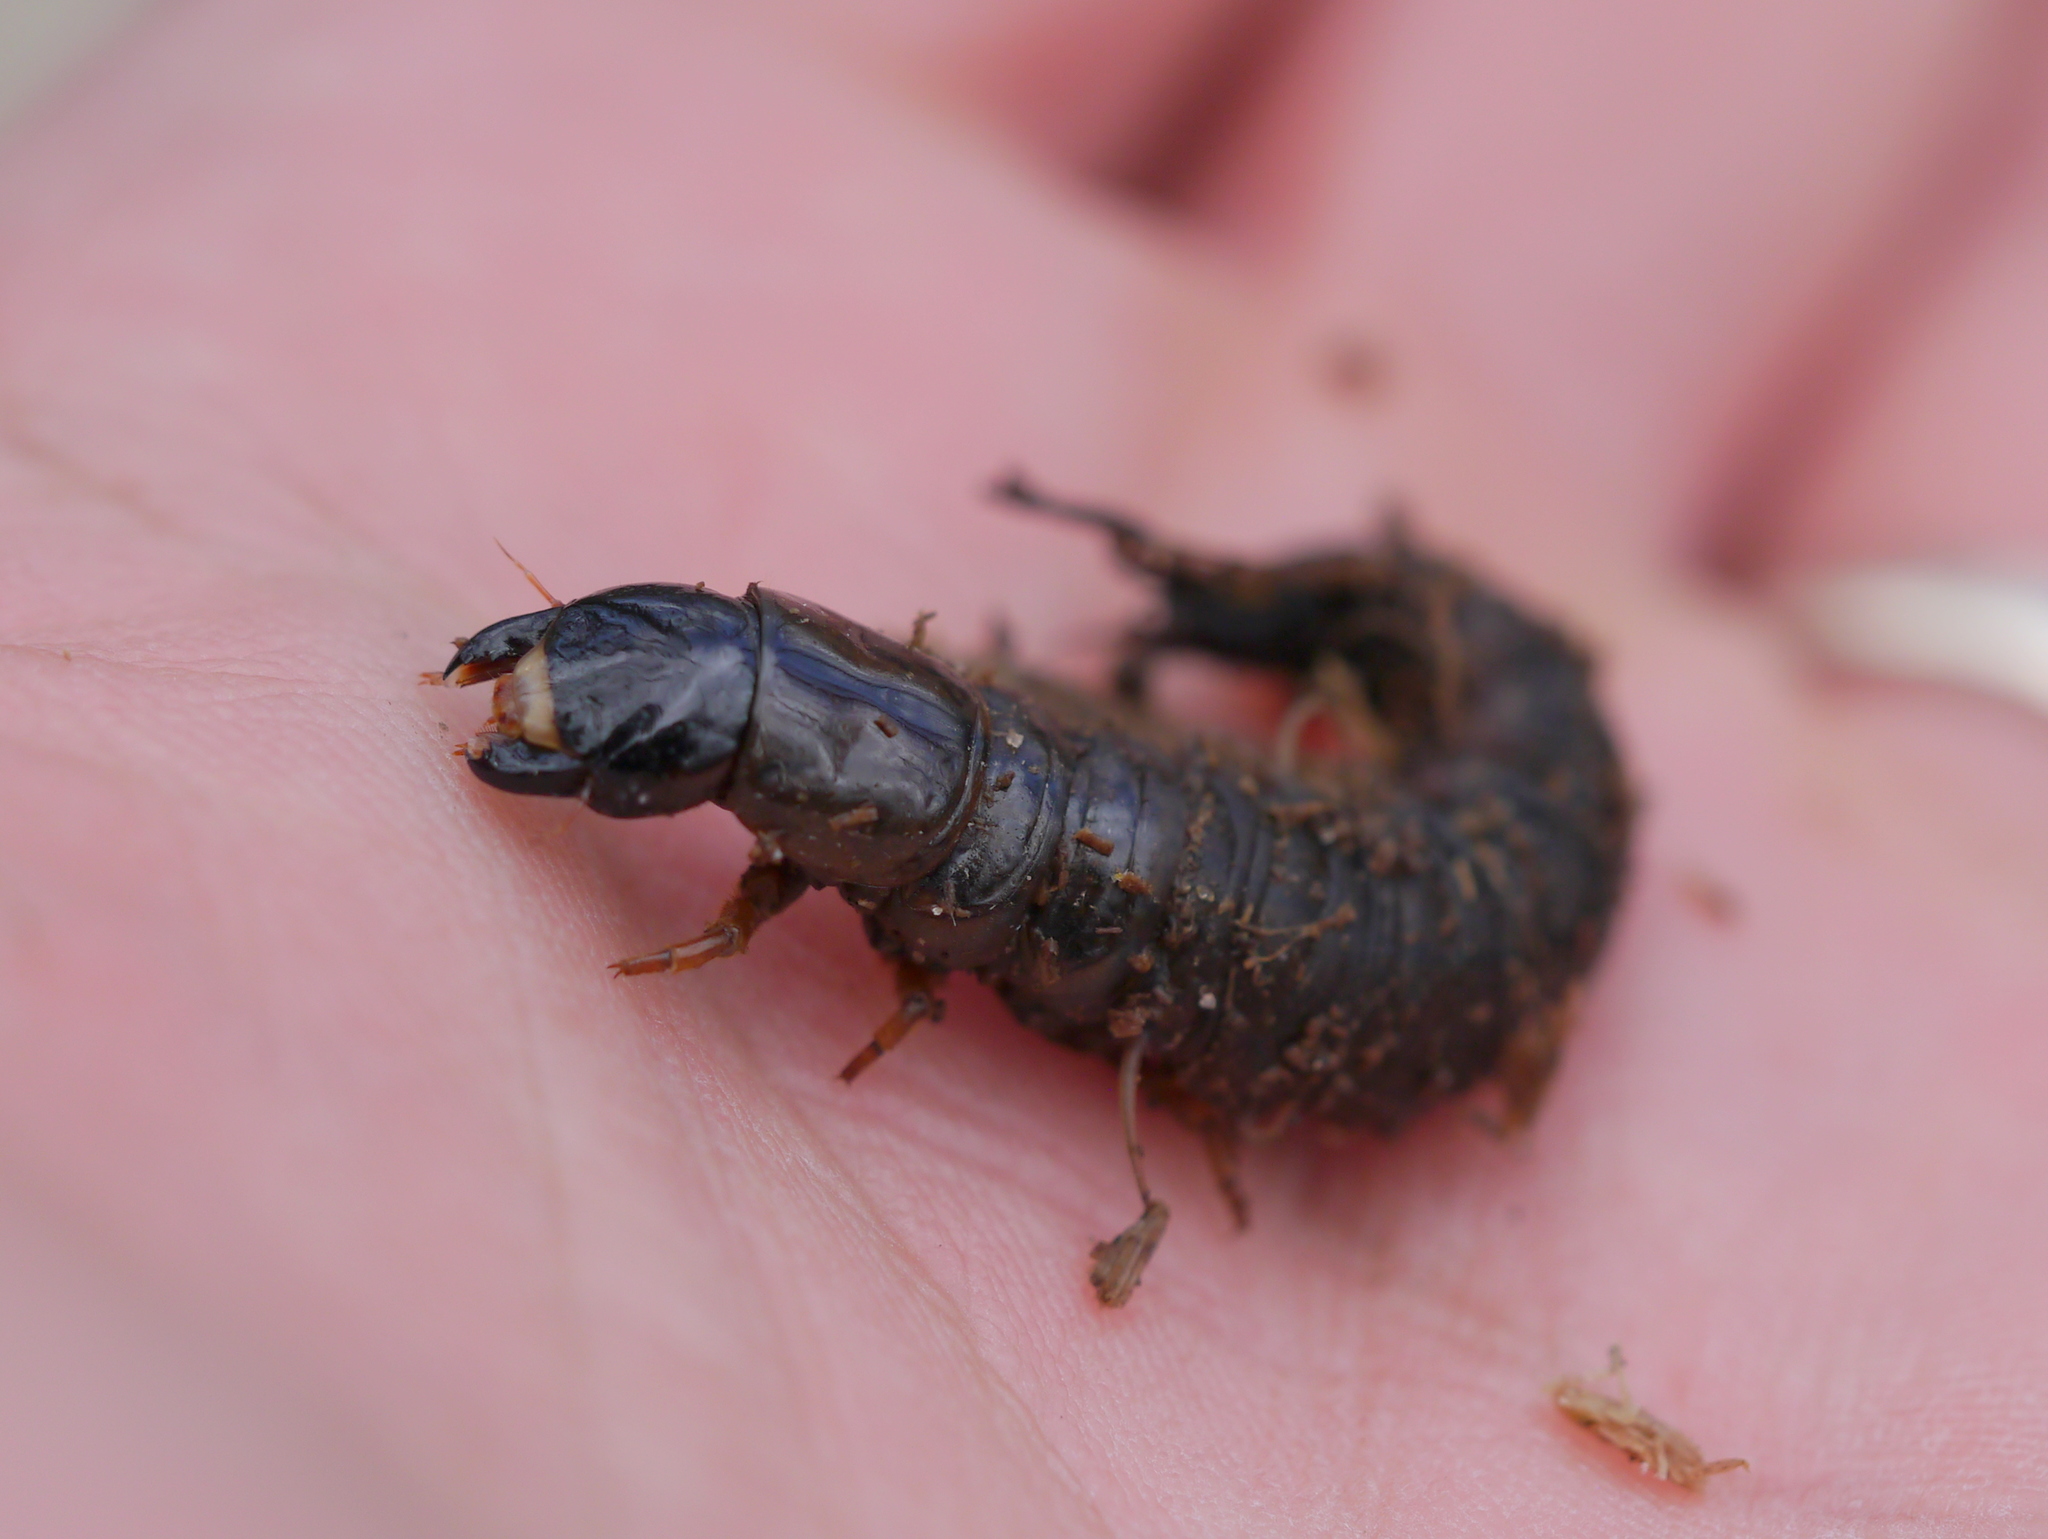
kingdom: Animalia
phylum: Arthropoda
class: Insecta
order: Megaloptera
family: Corydalidae
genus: Chauliodes
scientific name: Chauliodes rastricornis
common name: Spring fishfly
